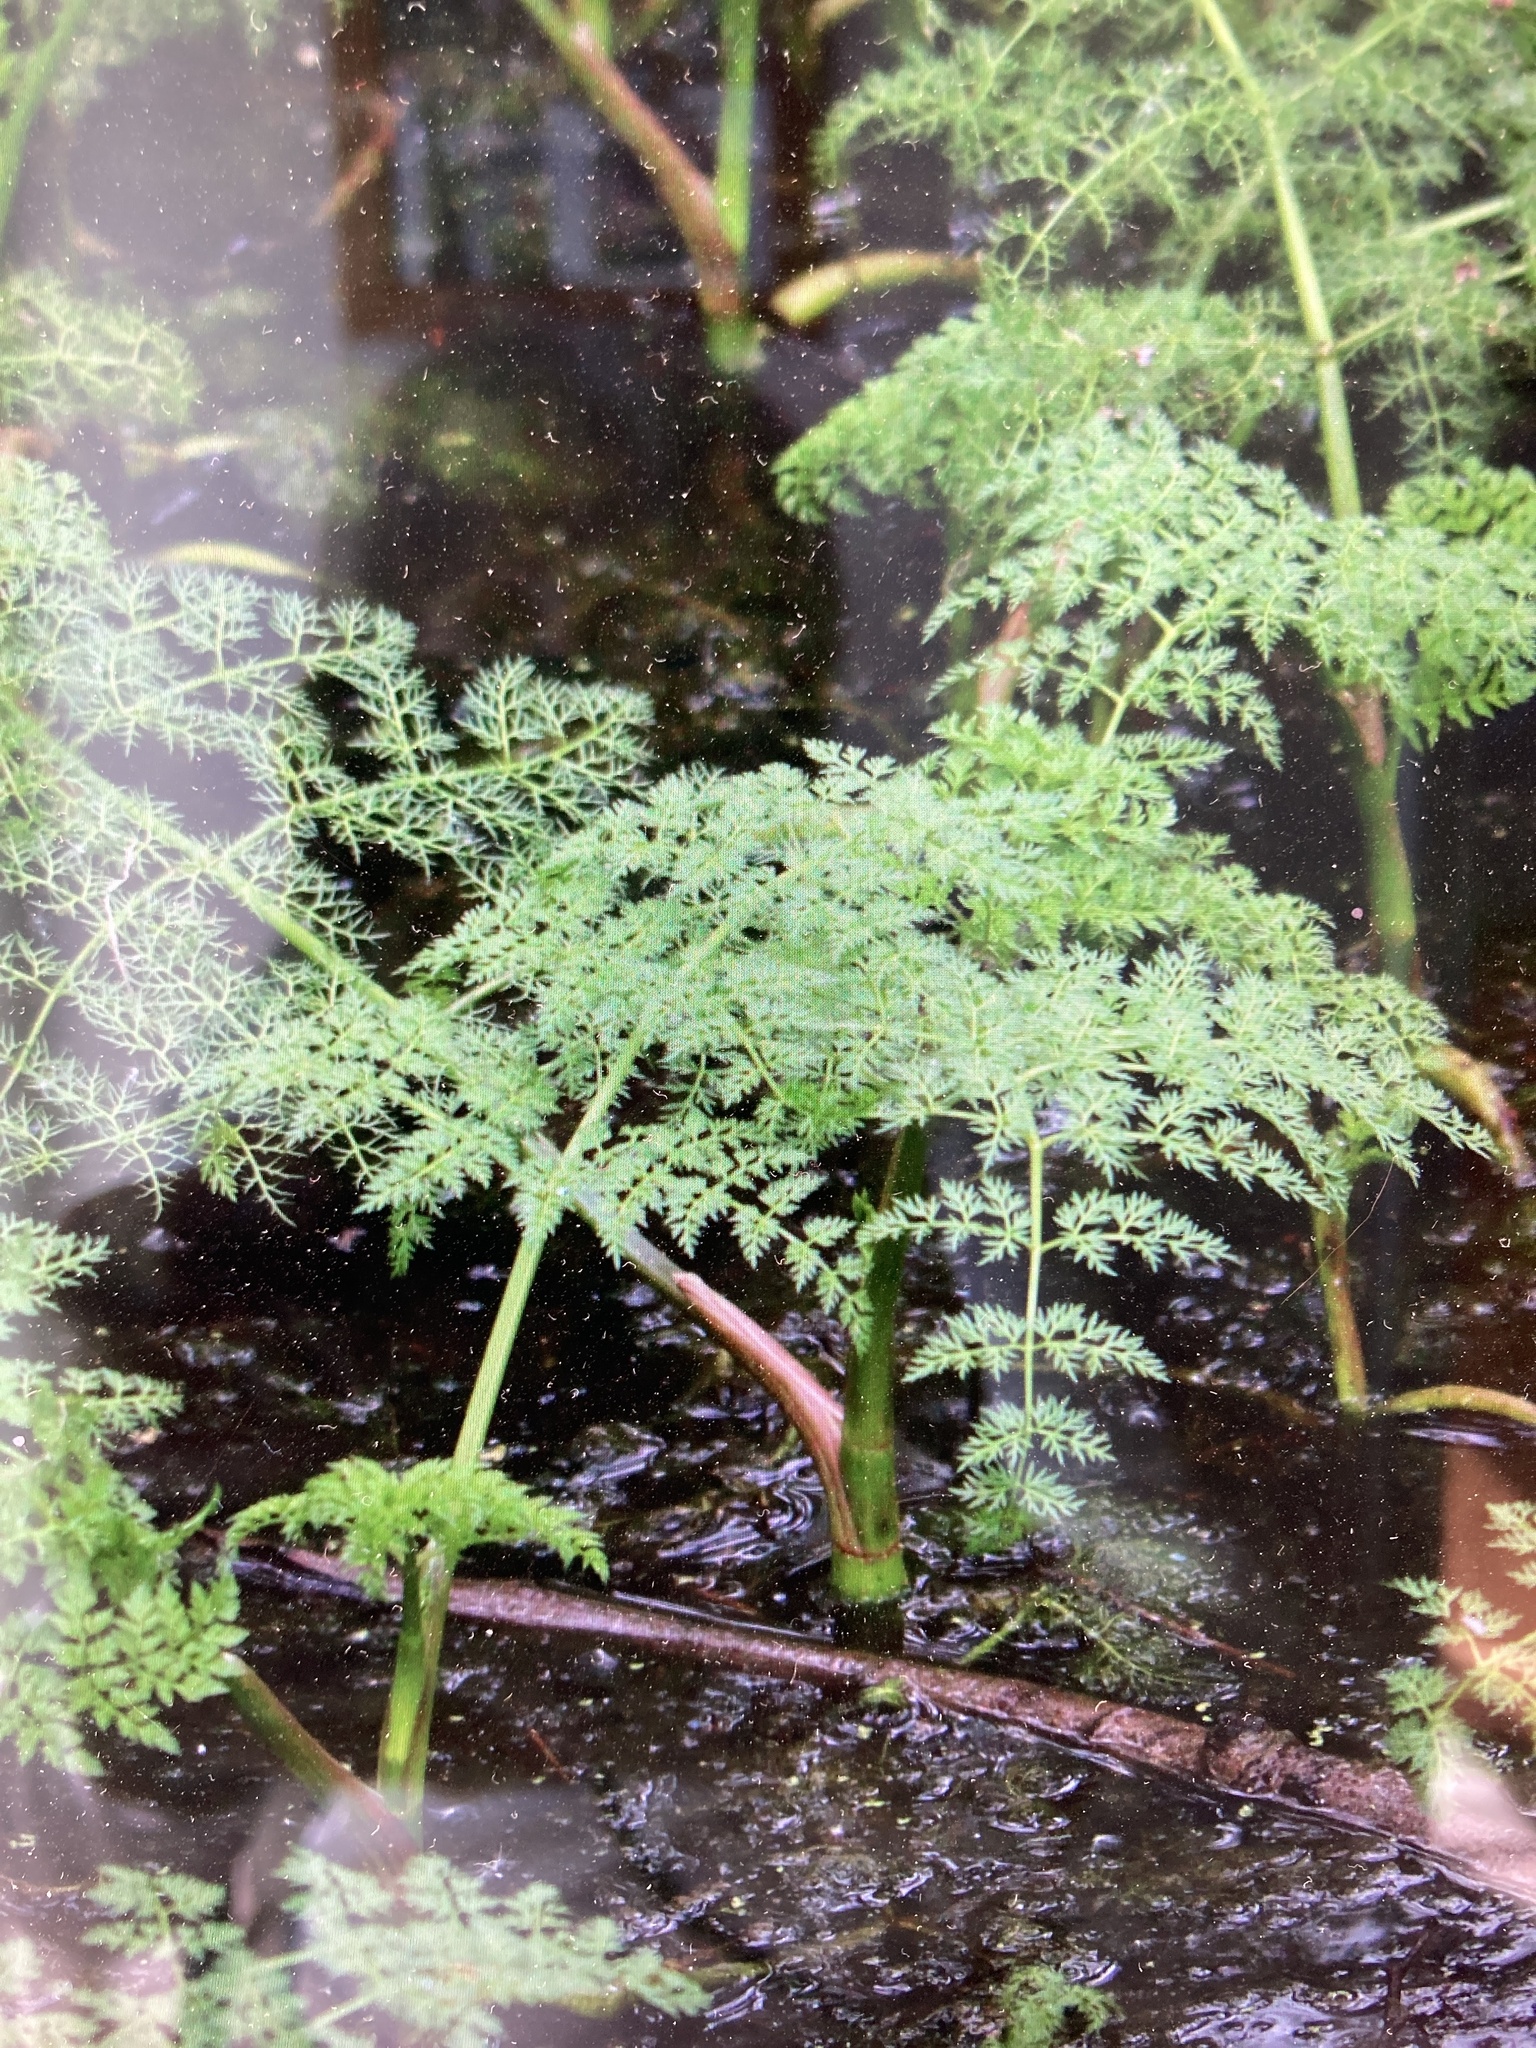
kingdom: Plantae
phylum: Tracheophyta
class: Magnoliopsida
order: Apiales
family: Apiaceae
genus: Oenanthe
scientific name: Oenanthe aquatica
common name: Fine-leaved water-dropwort
